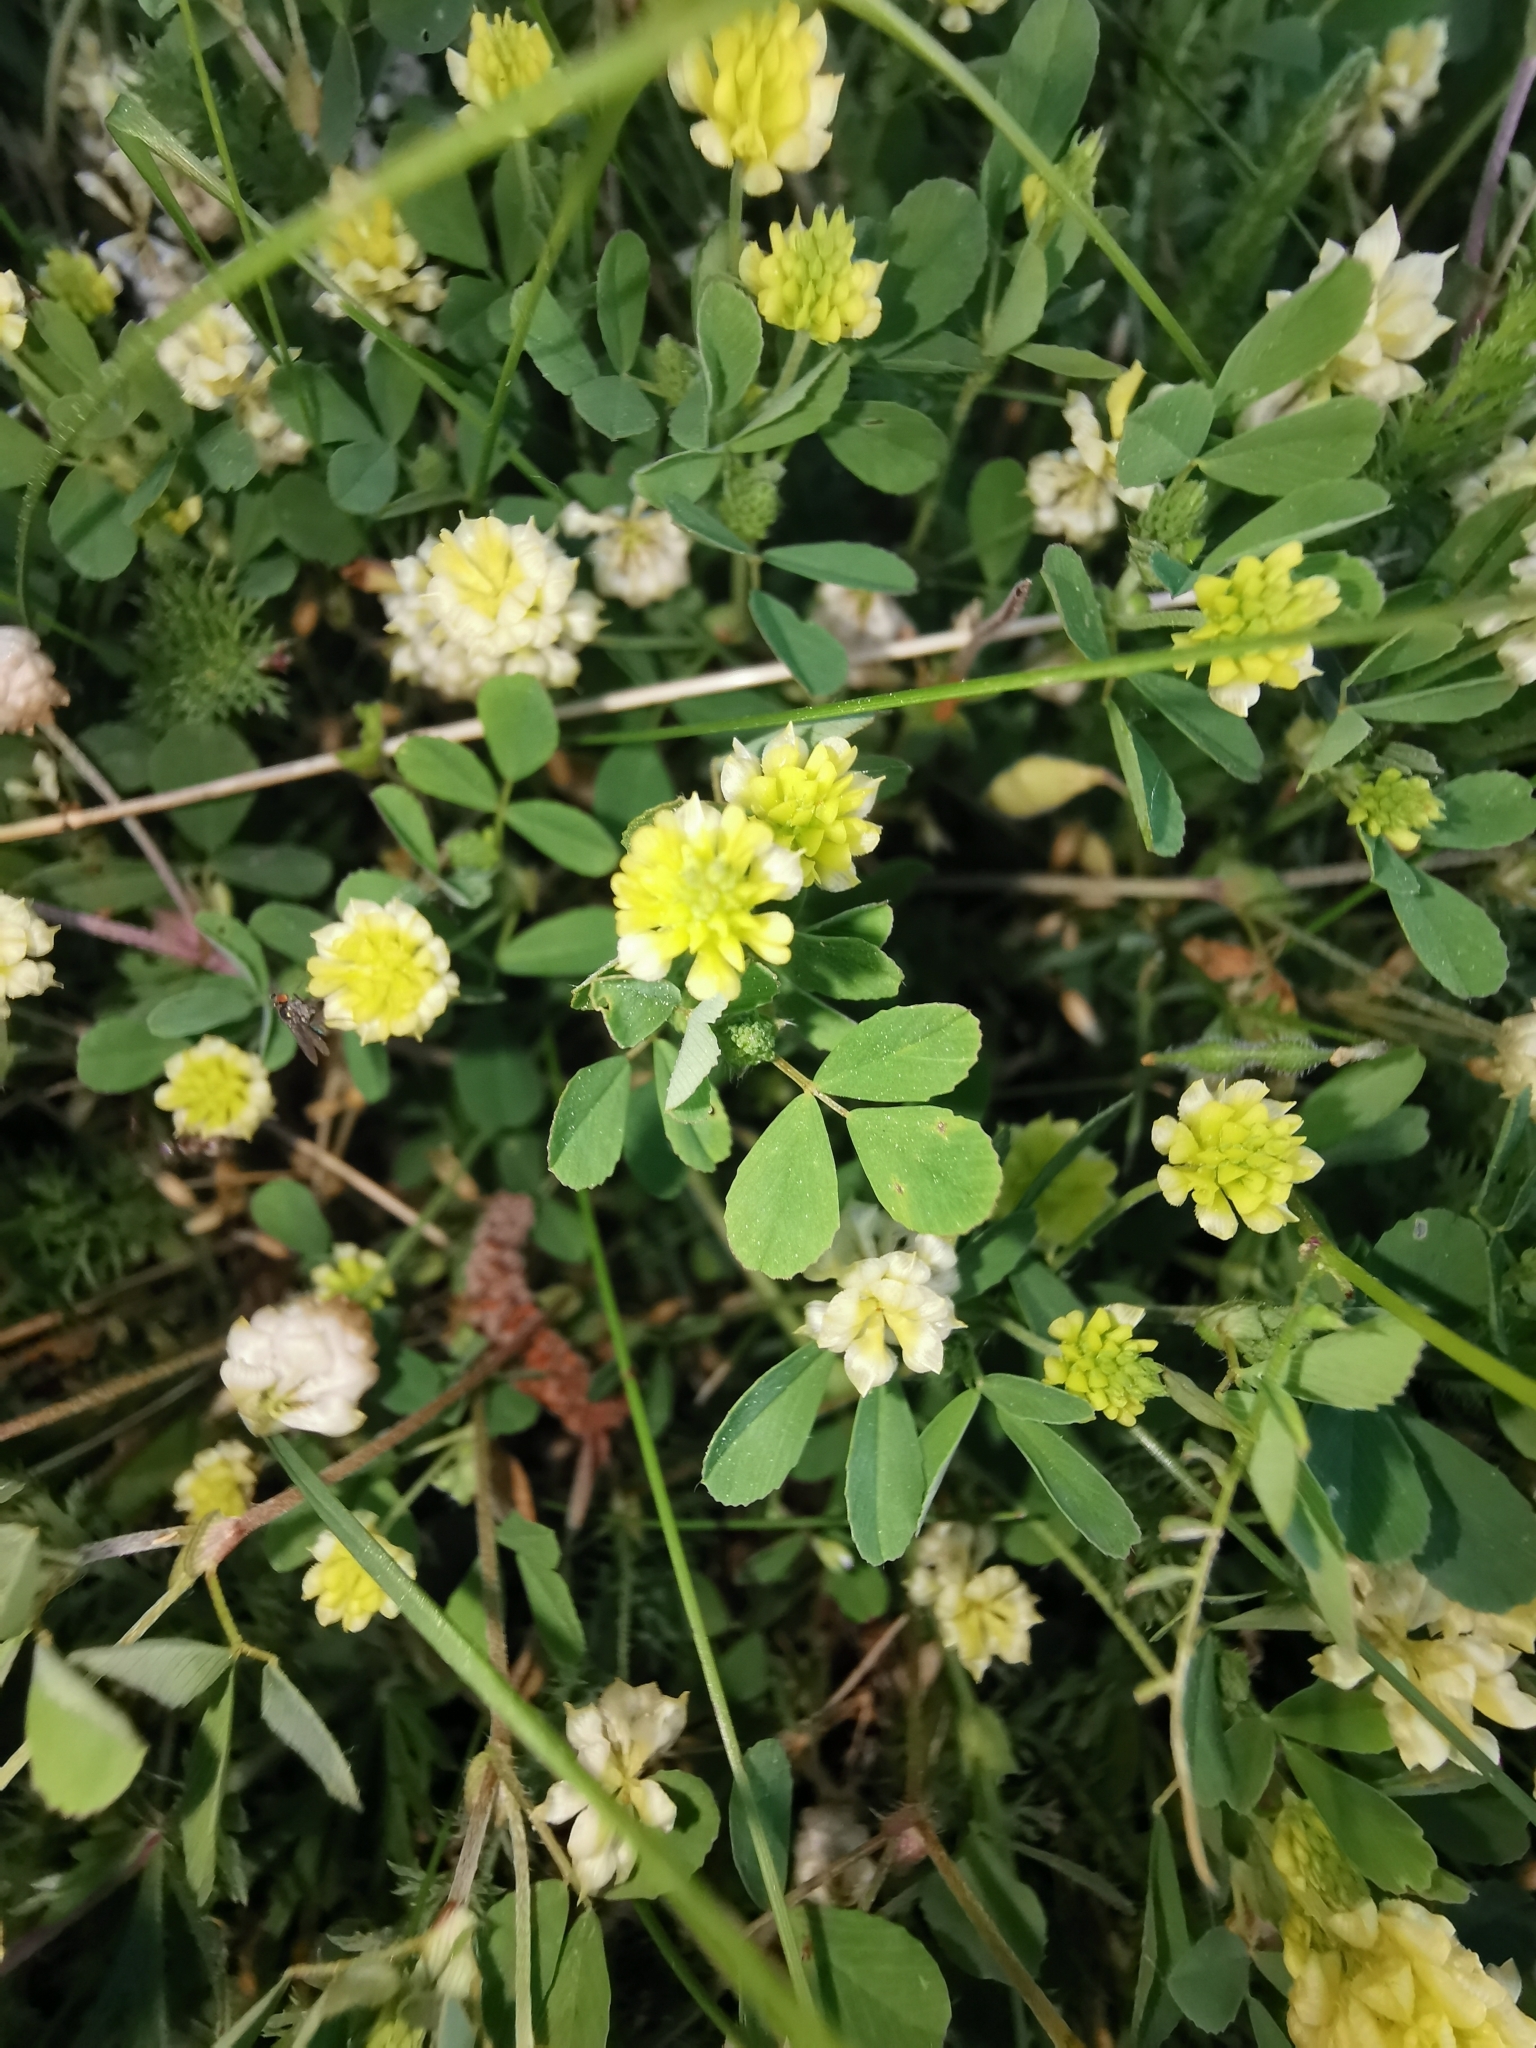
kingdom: Plantae
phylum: Tracheophyta
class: Magnoliopsida
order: Fabales
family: Fabaceae
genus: Trifolium
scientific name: Trifolium campestre
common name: Field clover
